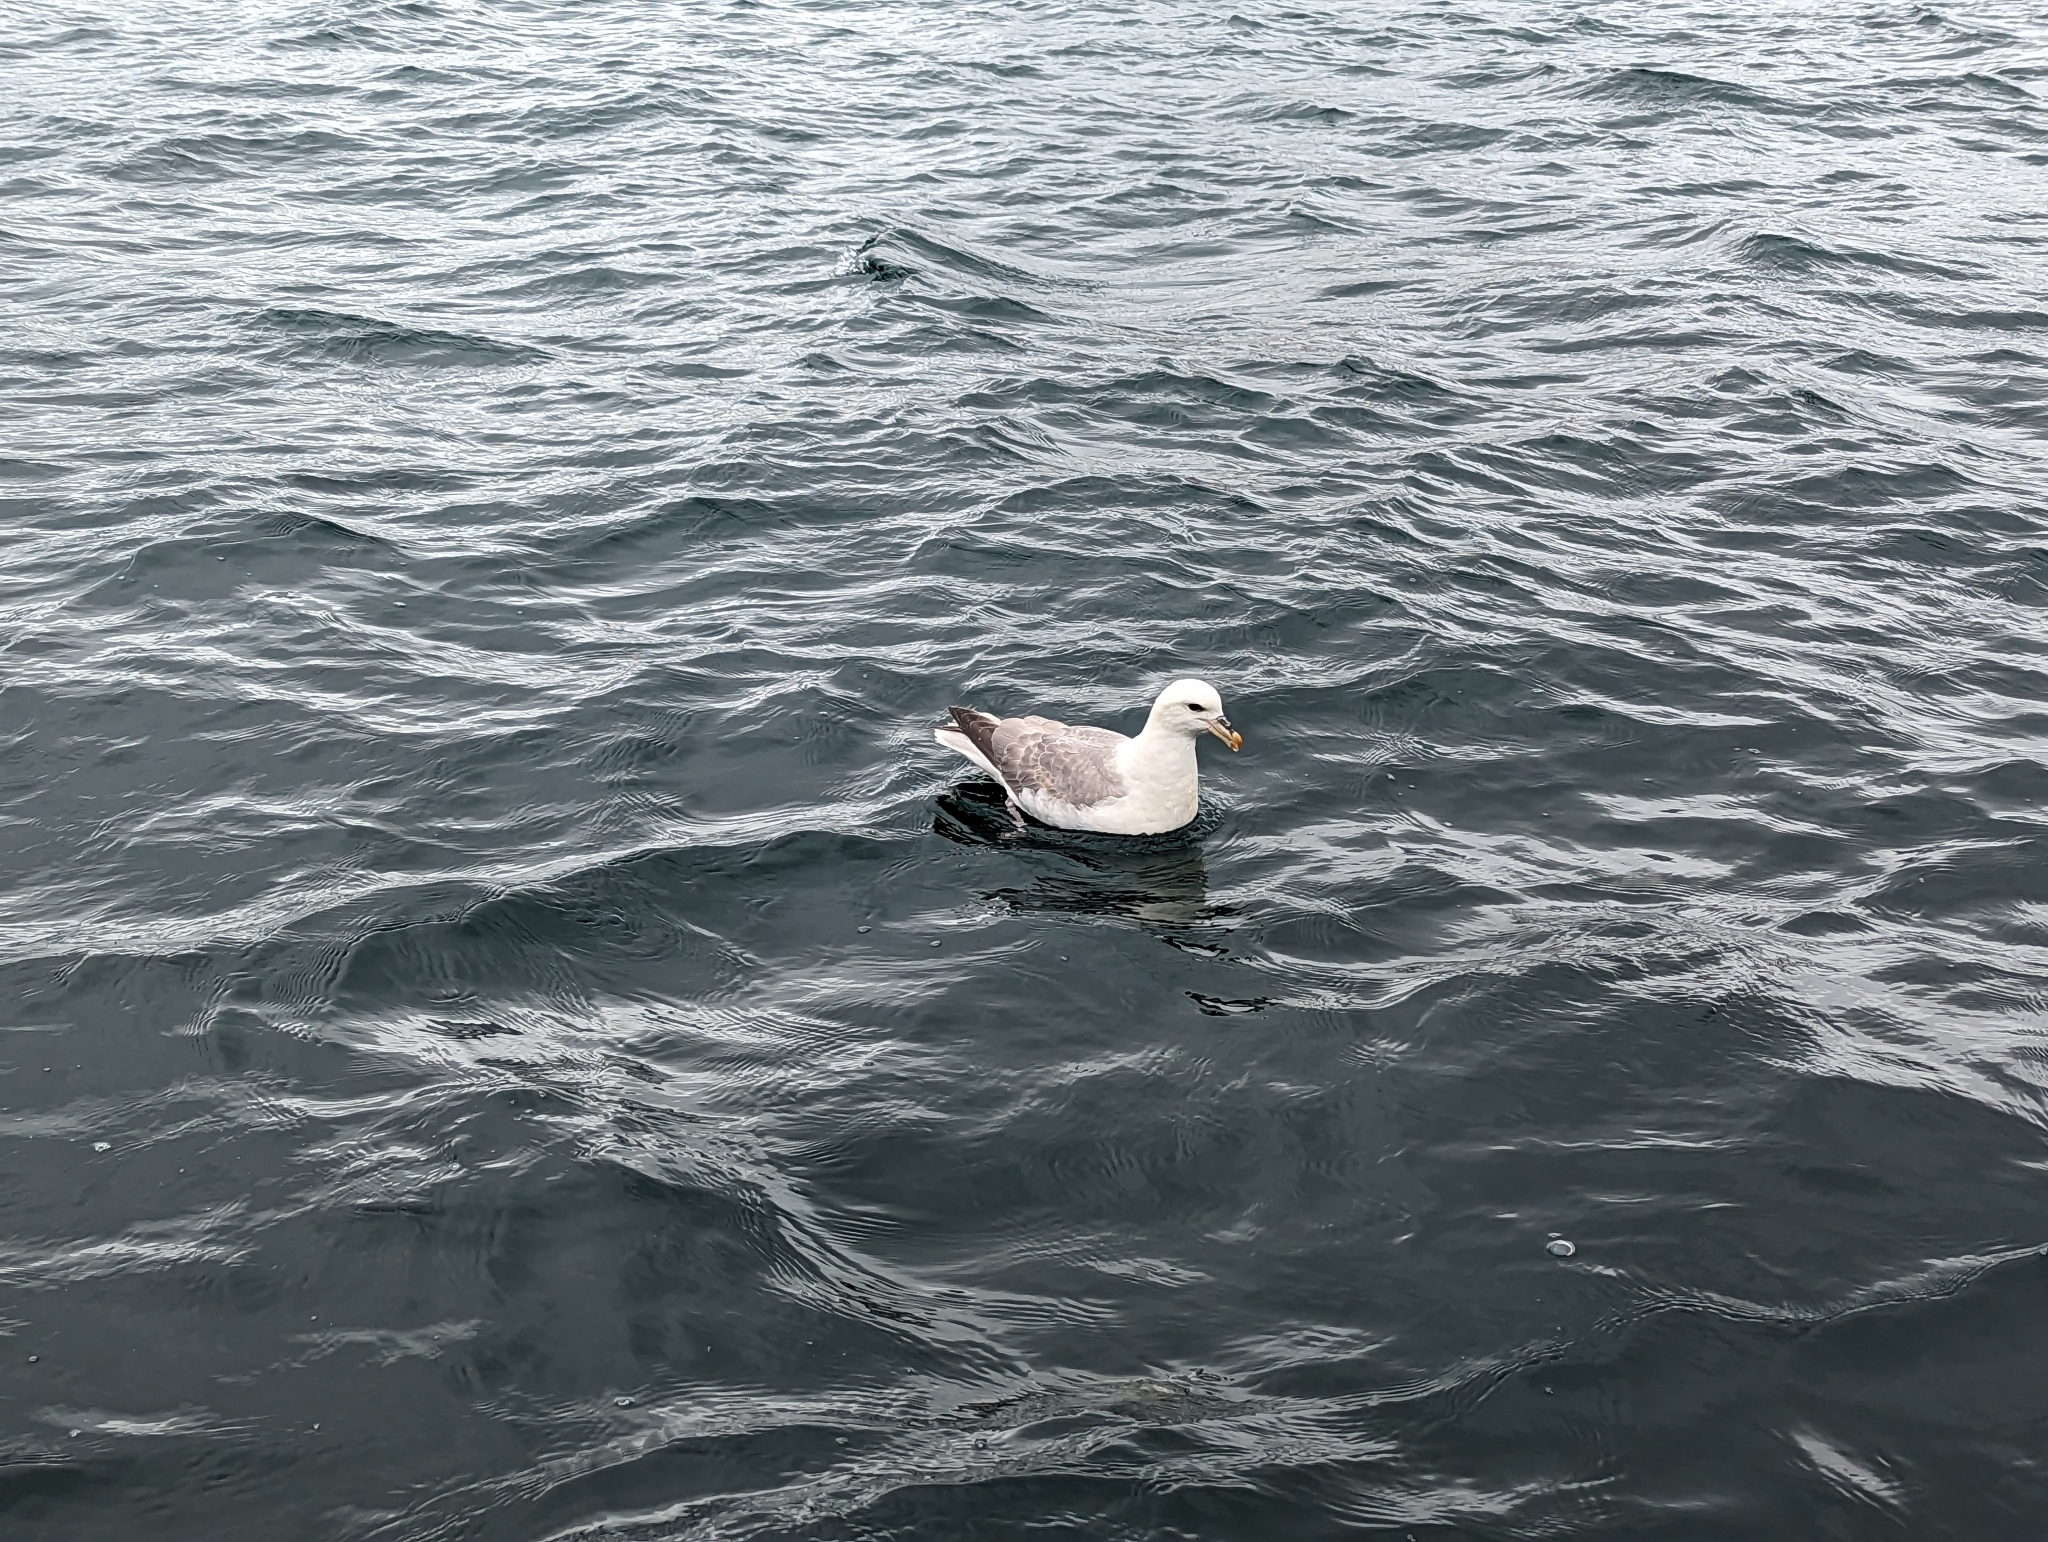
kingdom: Animalia
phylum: Chordata
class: Aves
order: Procellariiformes
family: Procellariidae
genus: Fulmarus
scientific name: Fulmarus glacialis
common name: Northern fulmar
